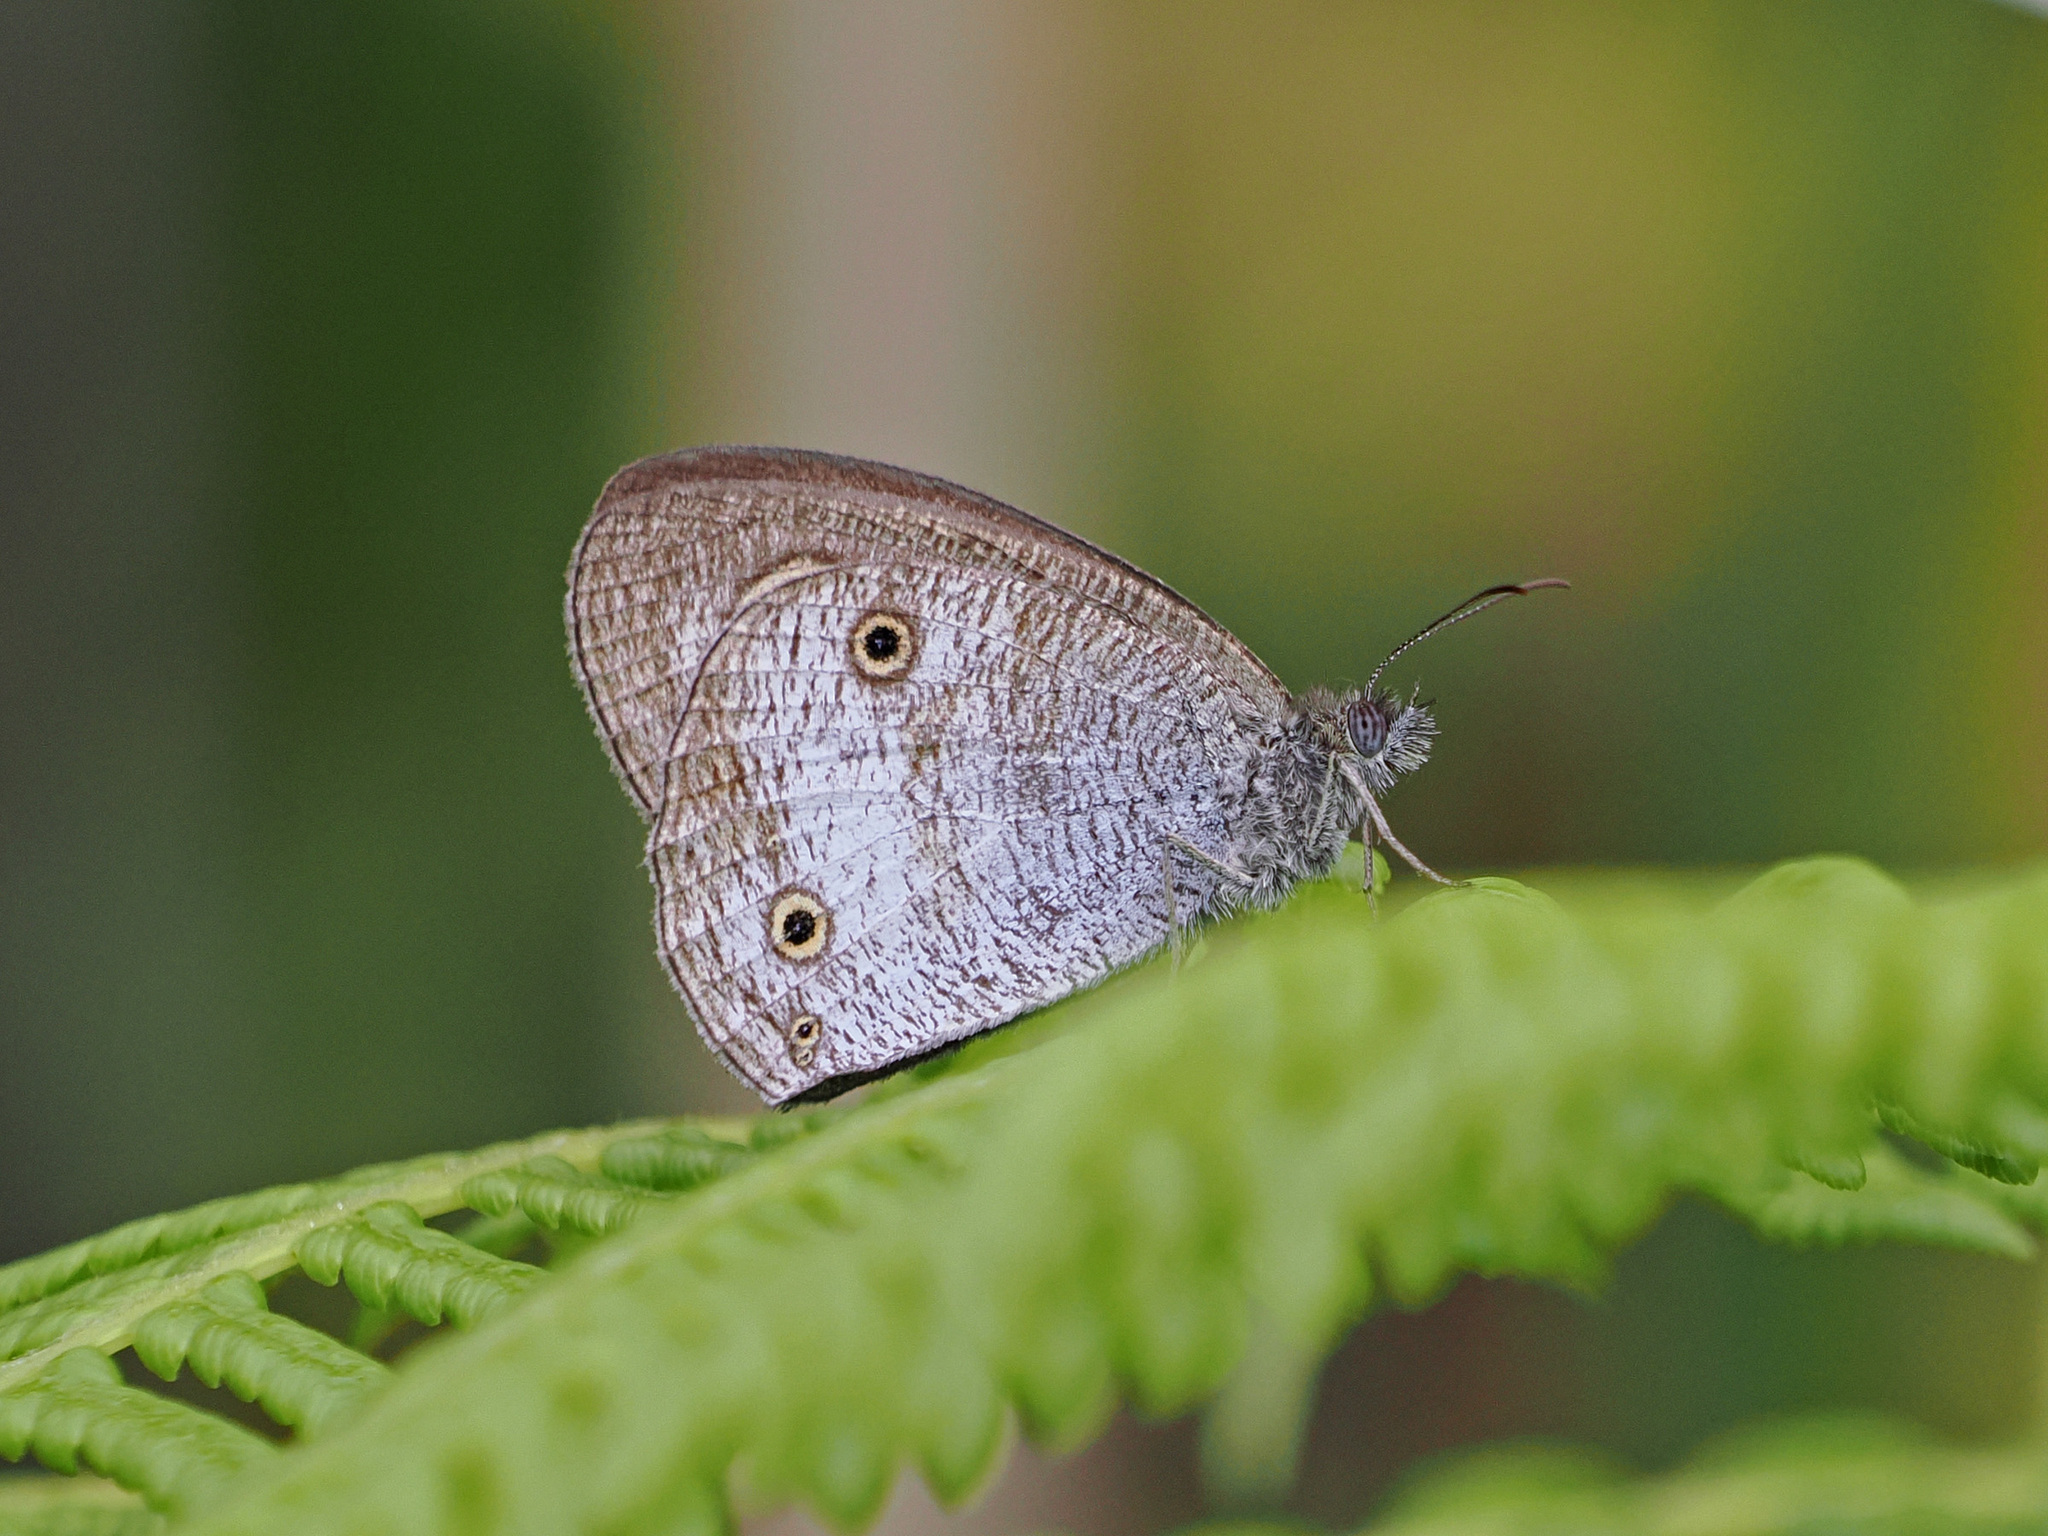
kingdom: Animalia
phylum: Arthropoda
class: Insecta
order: Lepidoptera
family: Nymphalidae
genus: Ypthima
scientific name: Ypthima pandocus
